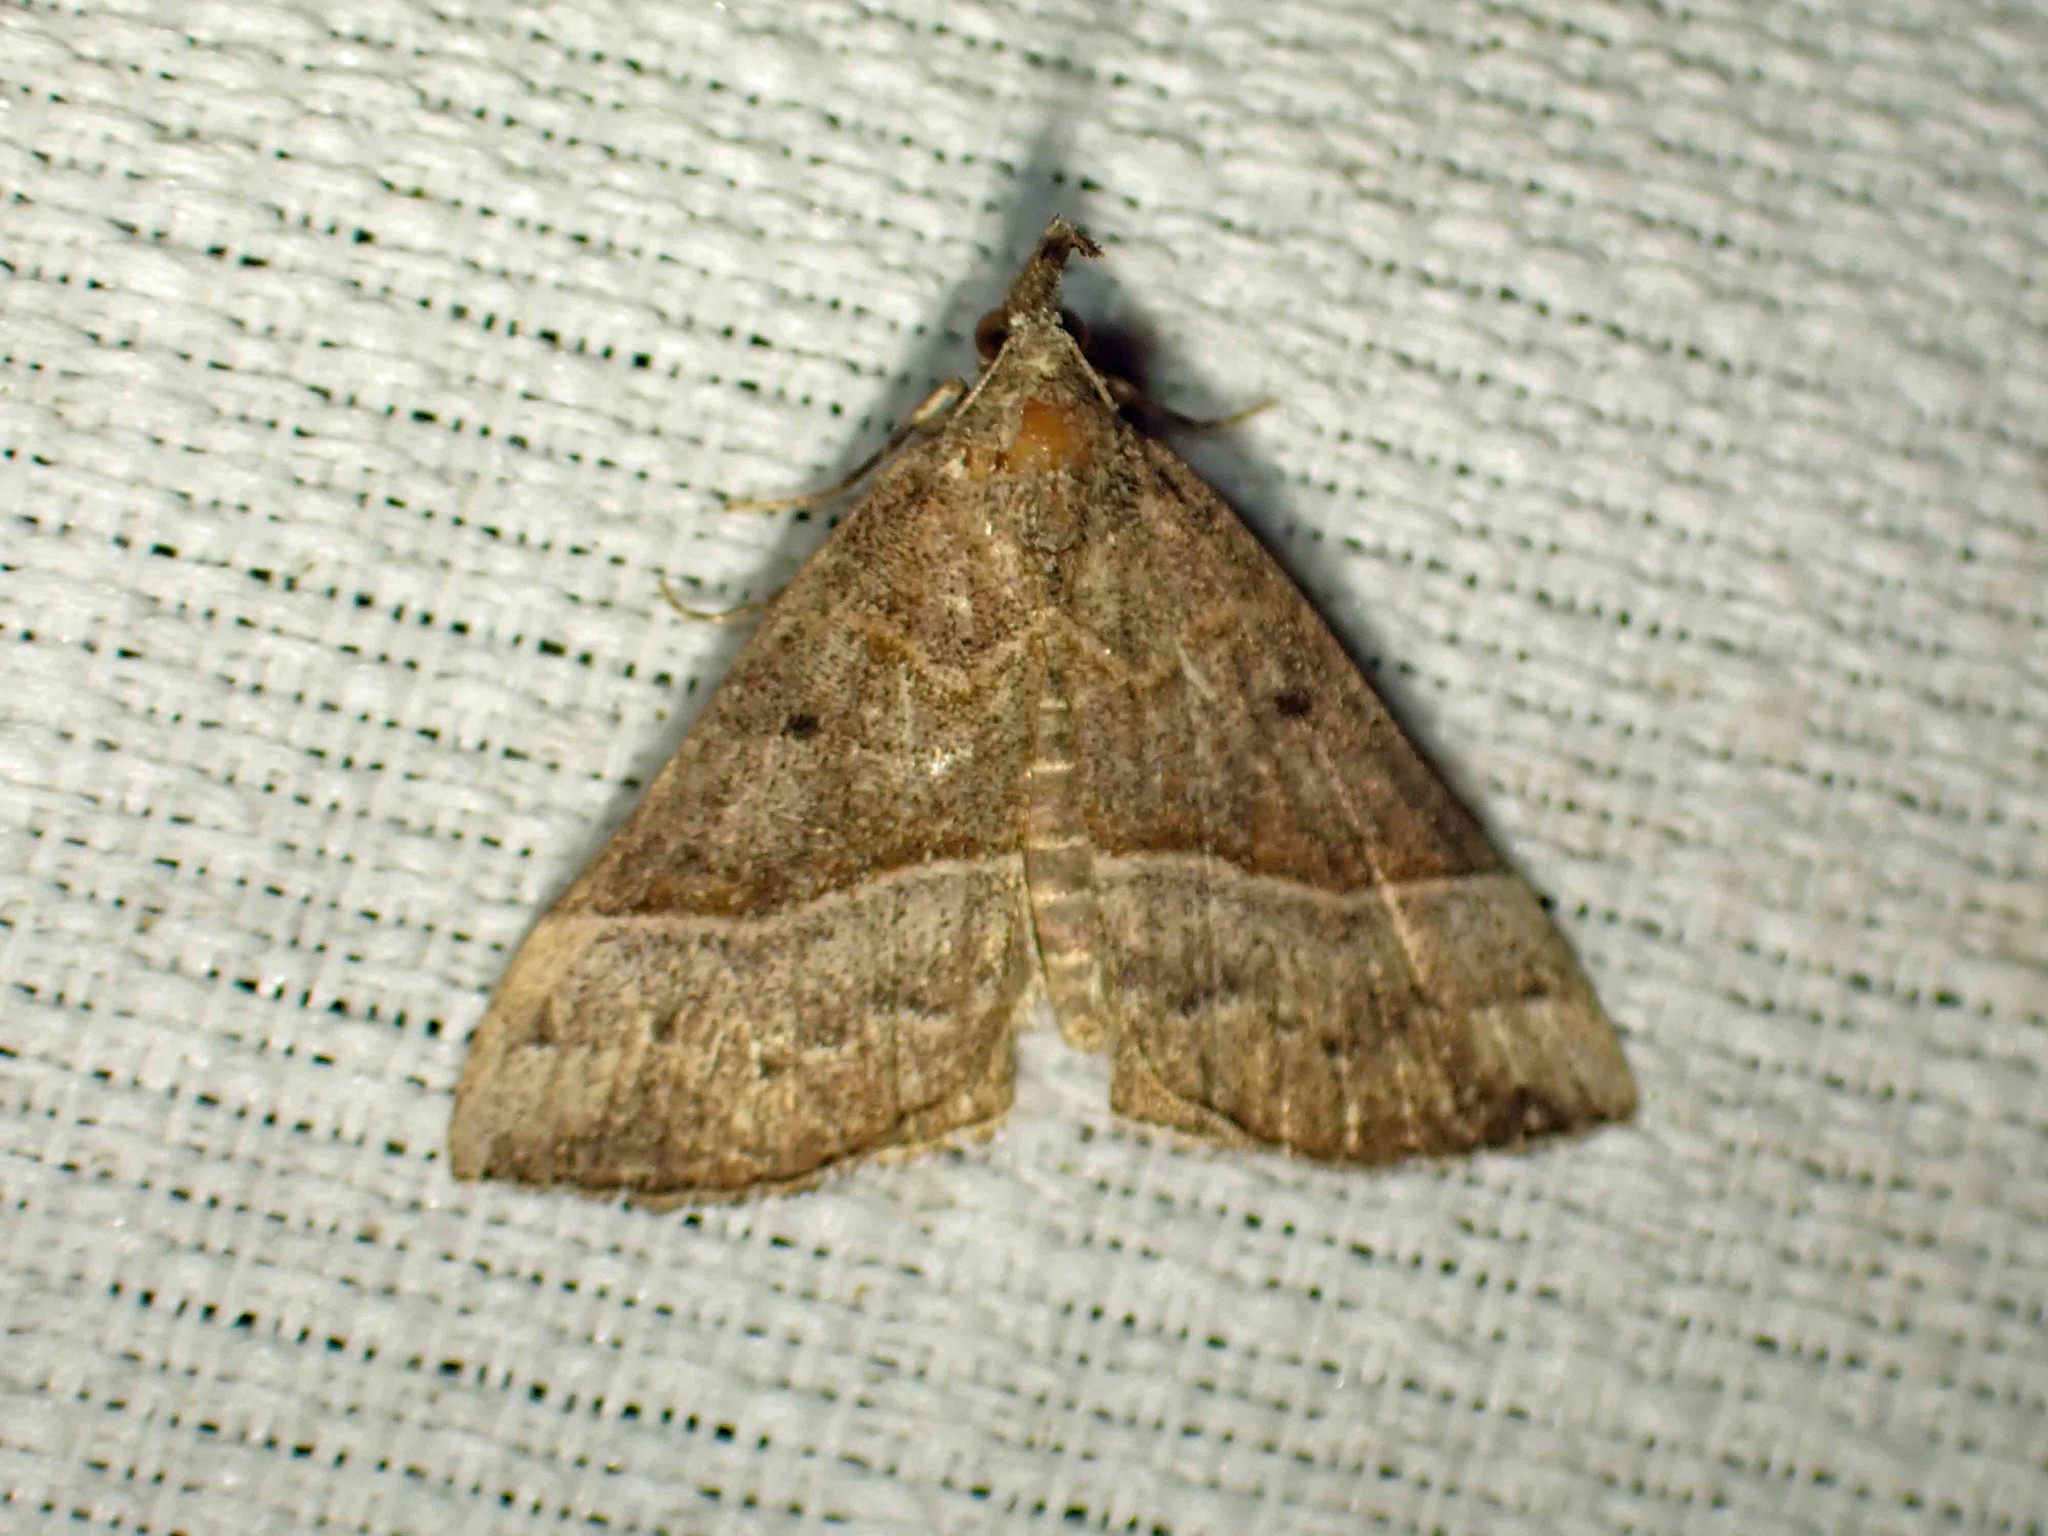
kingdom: Animalia
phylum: Arthropoda
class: Insecta
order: Lepidoptera
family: Erebidae
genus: Hypena
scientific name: Hypena eductalis
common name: Red-footed snout
